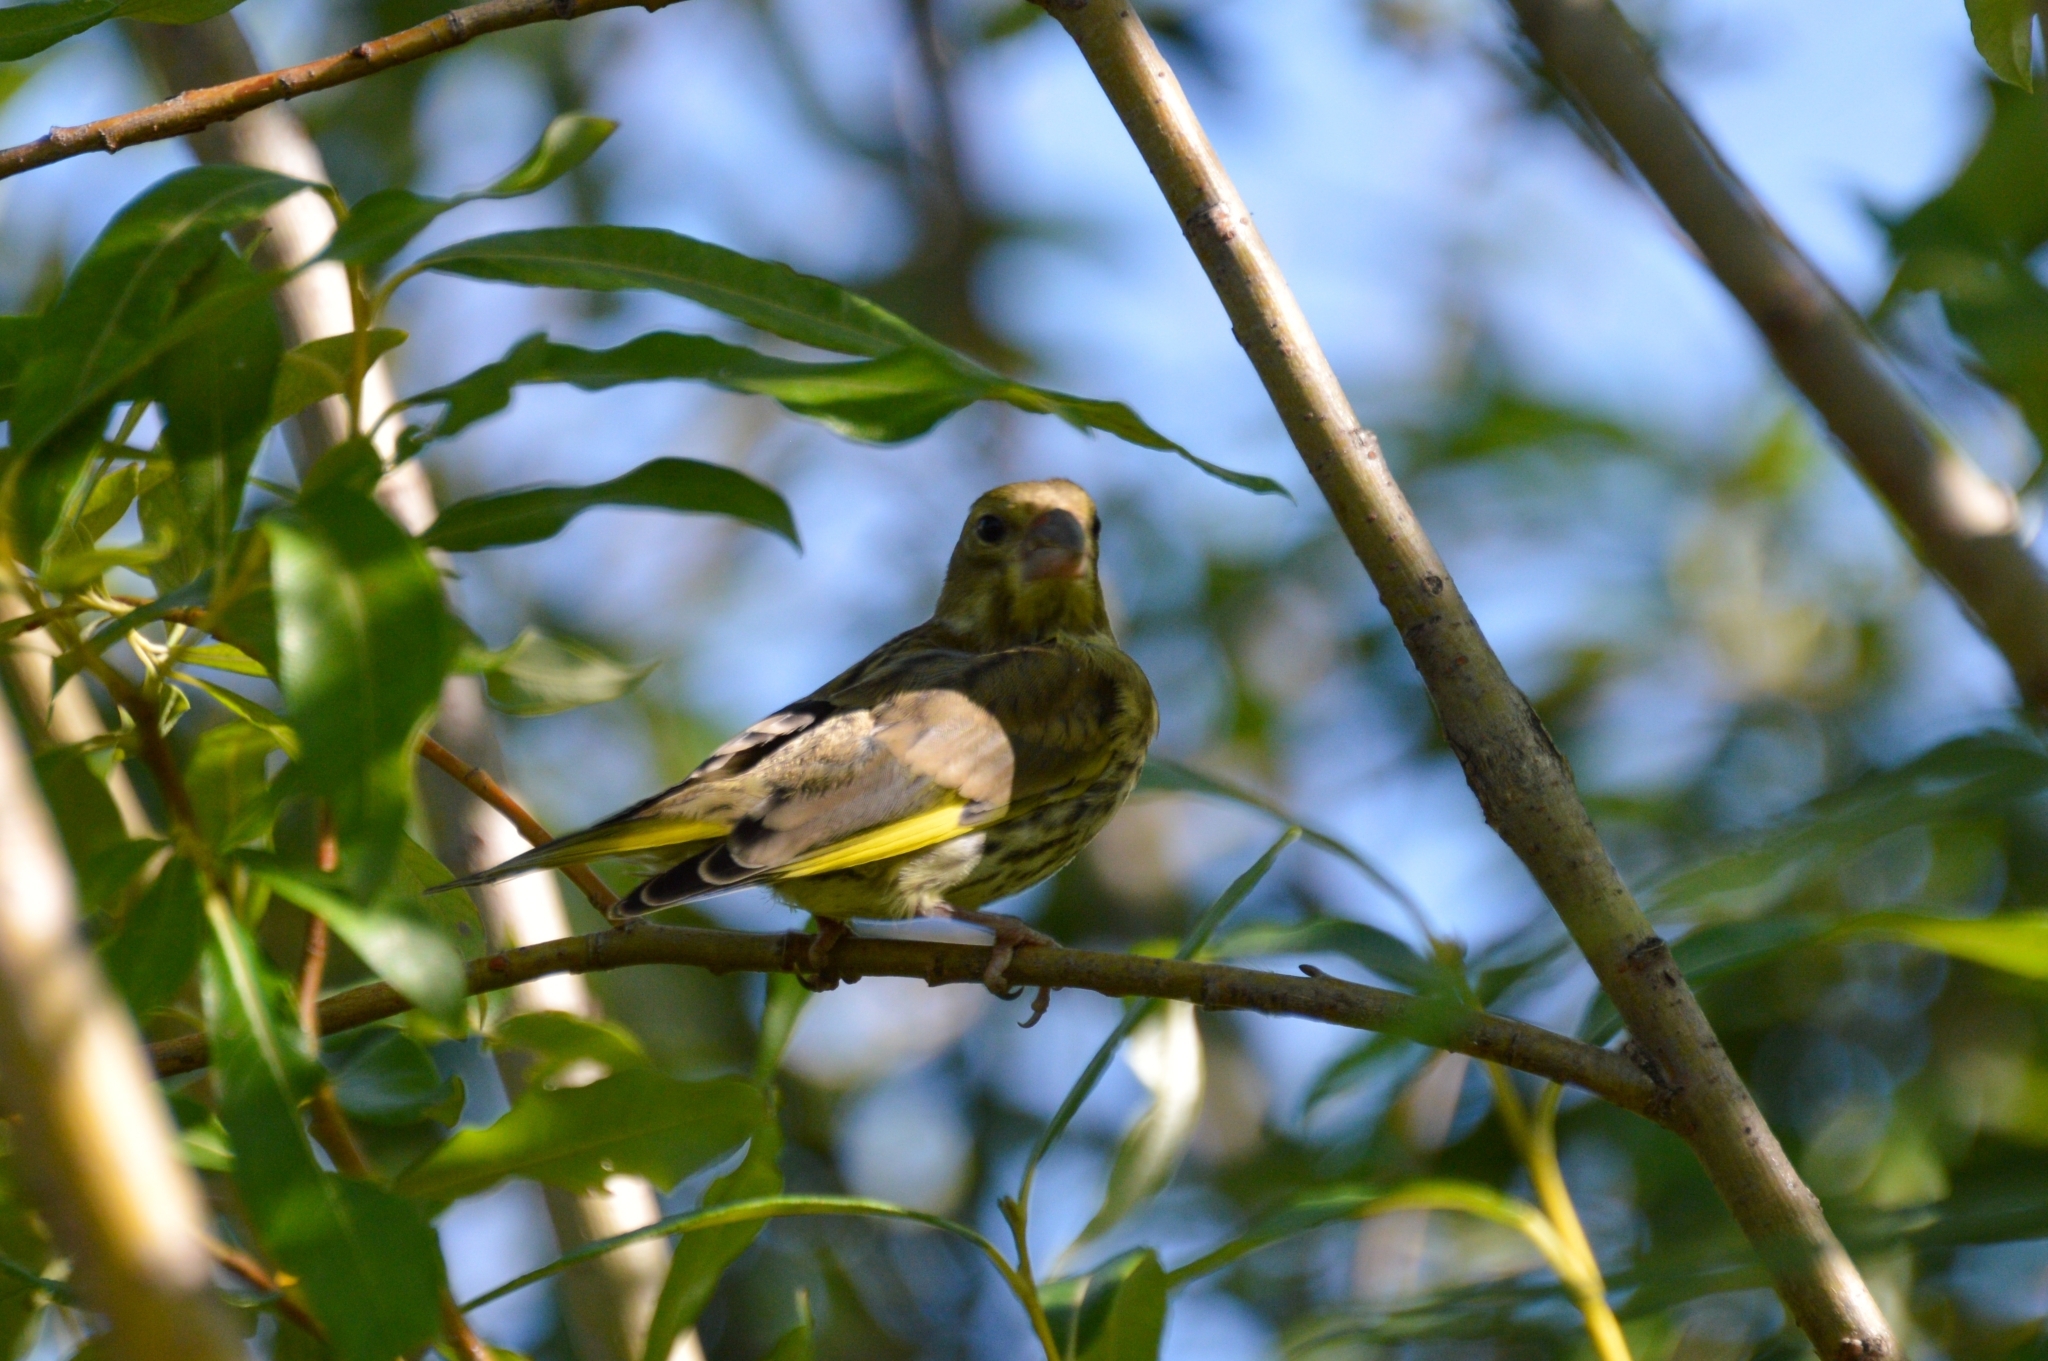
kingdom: Plantae
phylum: Tracheophyta
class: Liliopsida
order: Poales
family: Poaceae
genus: Chloris
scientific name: Chloris chloris
